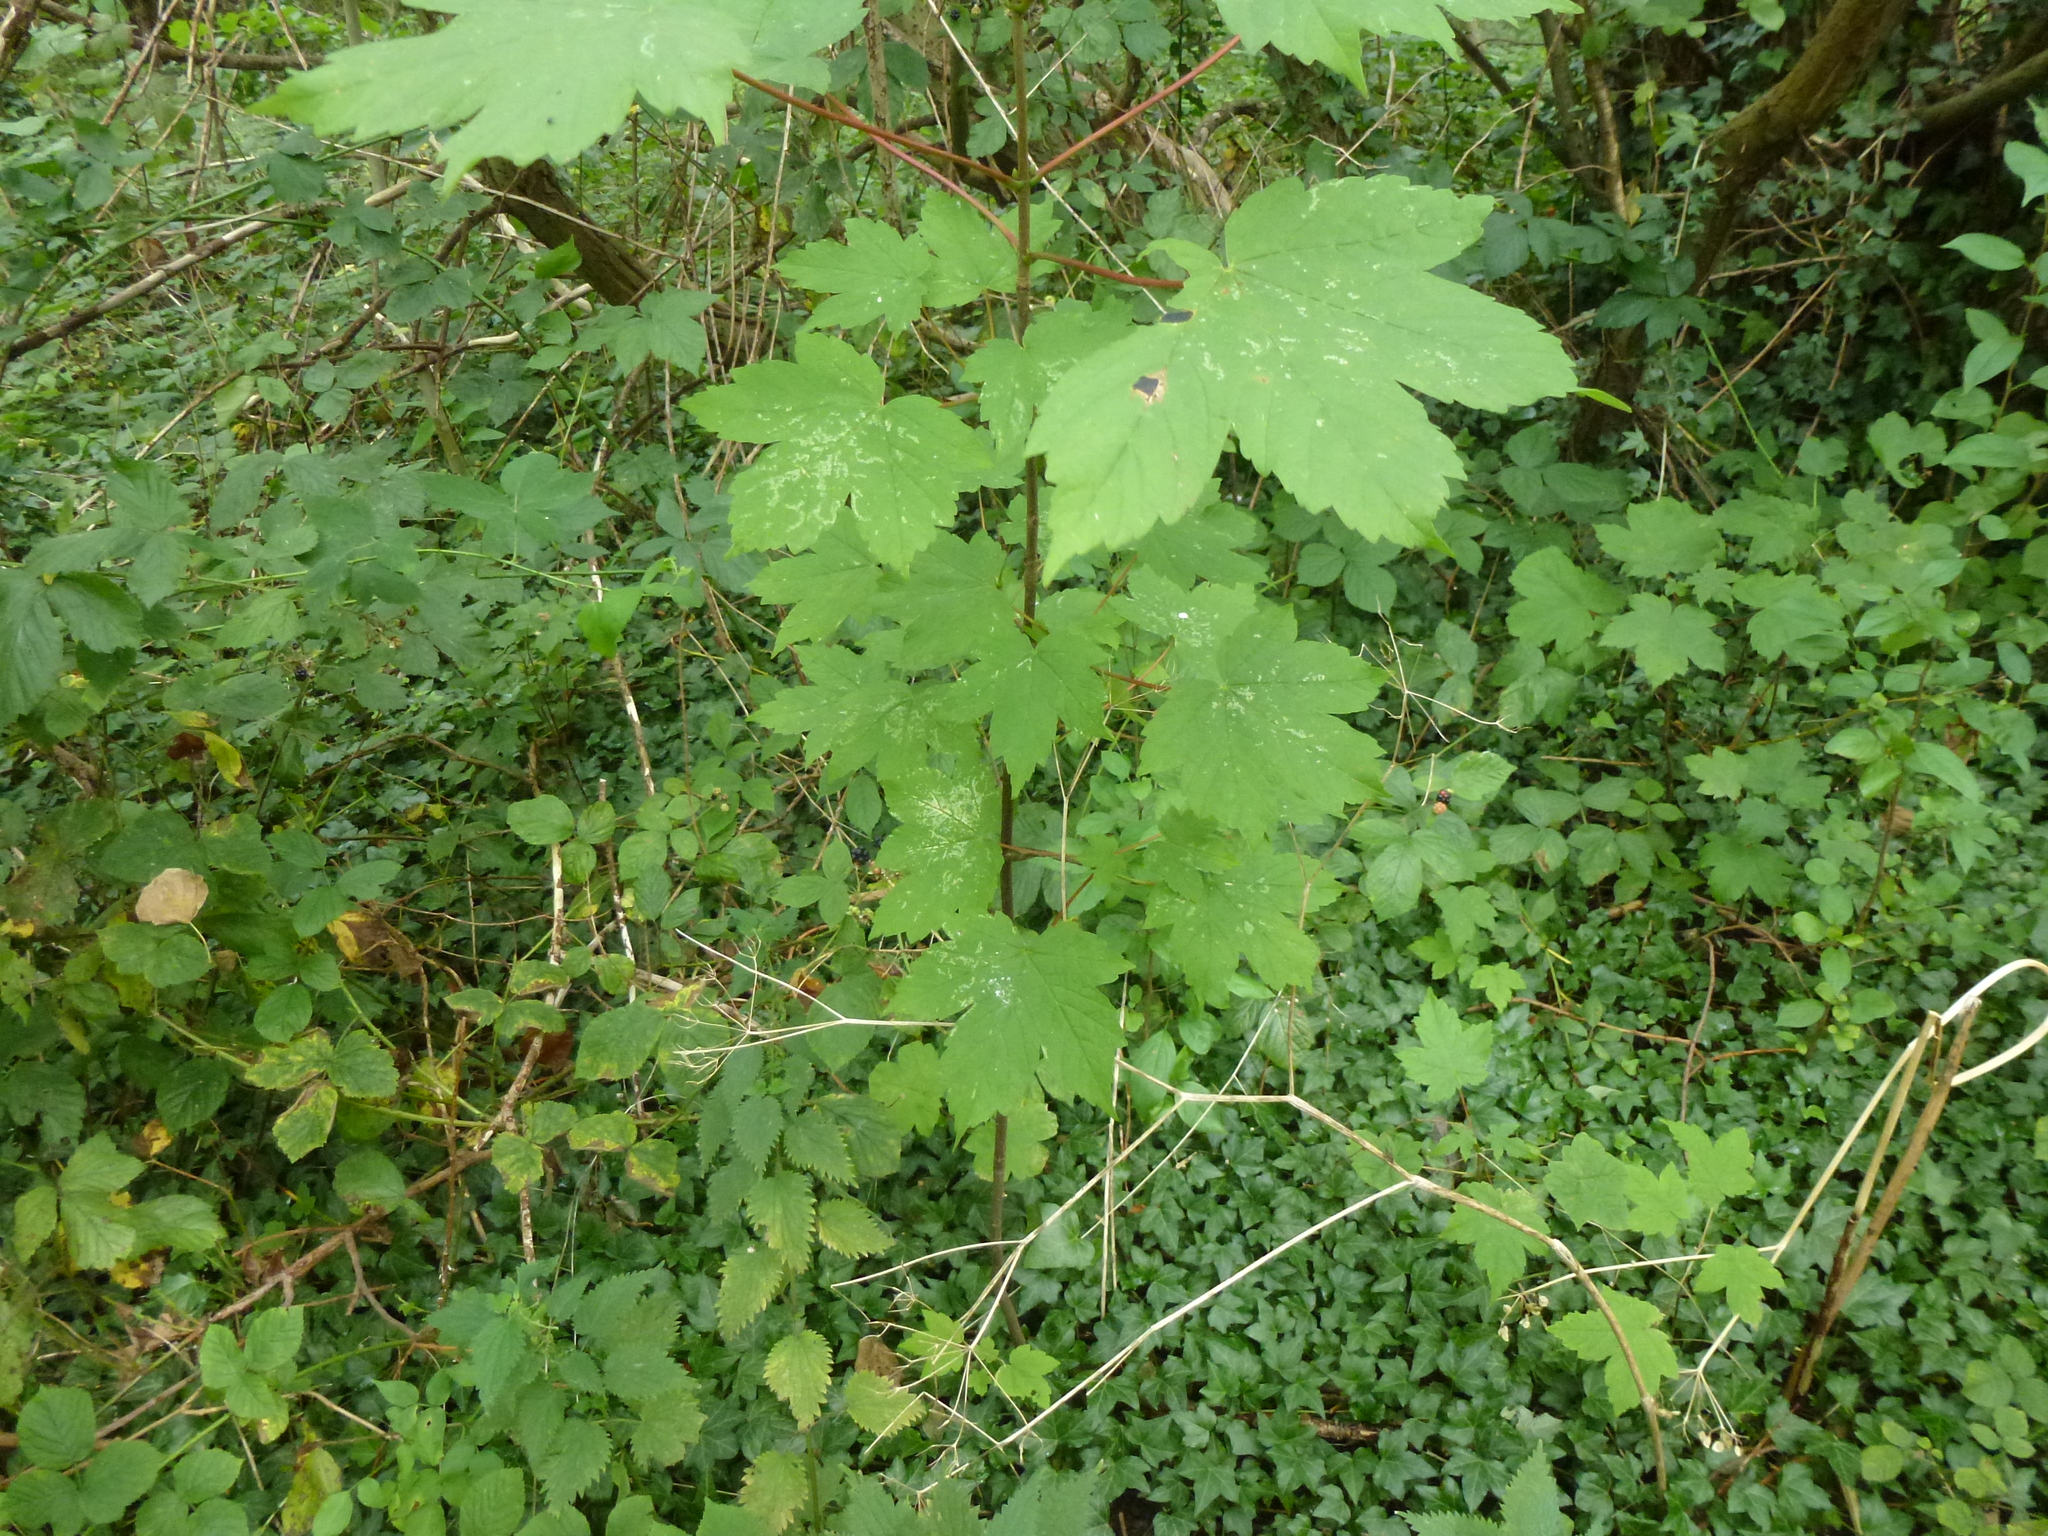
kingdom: Plantae
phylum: Tracheophyta
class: Magnoliopsida
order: Sapindales
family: Sapindaceae
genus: Acer
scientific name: Acer pseudoplatanus
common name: Sycamore
